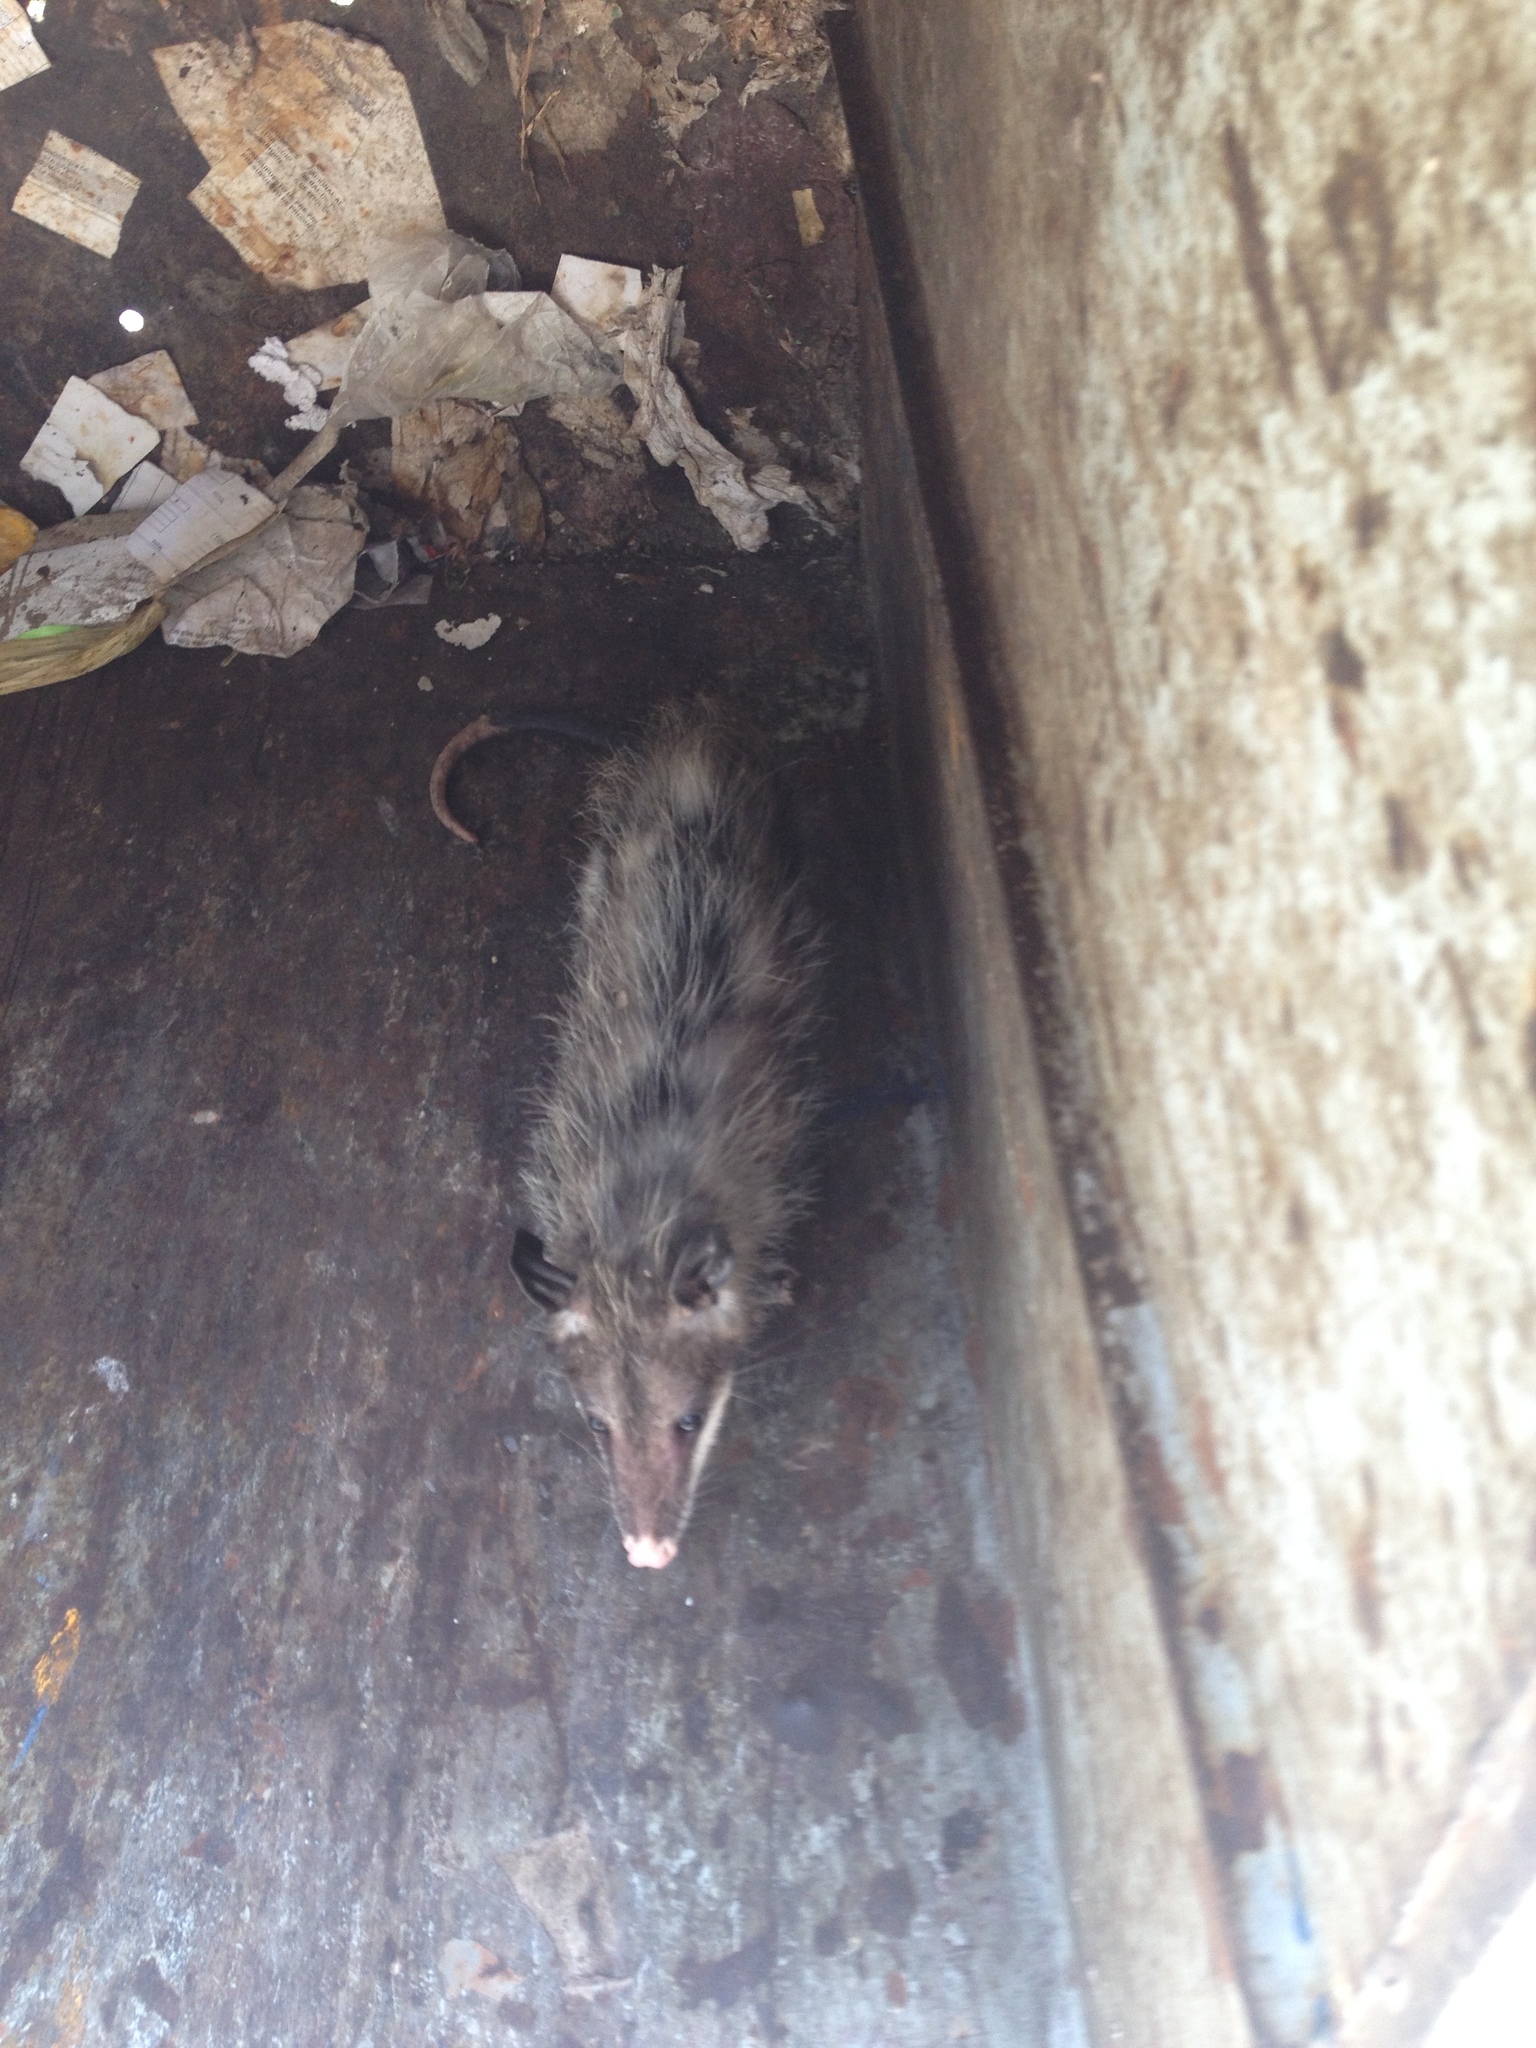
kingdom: Animalia
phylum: Chordata
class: Mammalia
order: Didelphimorphia
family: Didelphidae
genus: Didelphis
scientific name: Didelphis virginiana
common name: Virginia opossum
